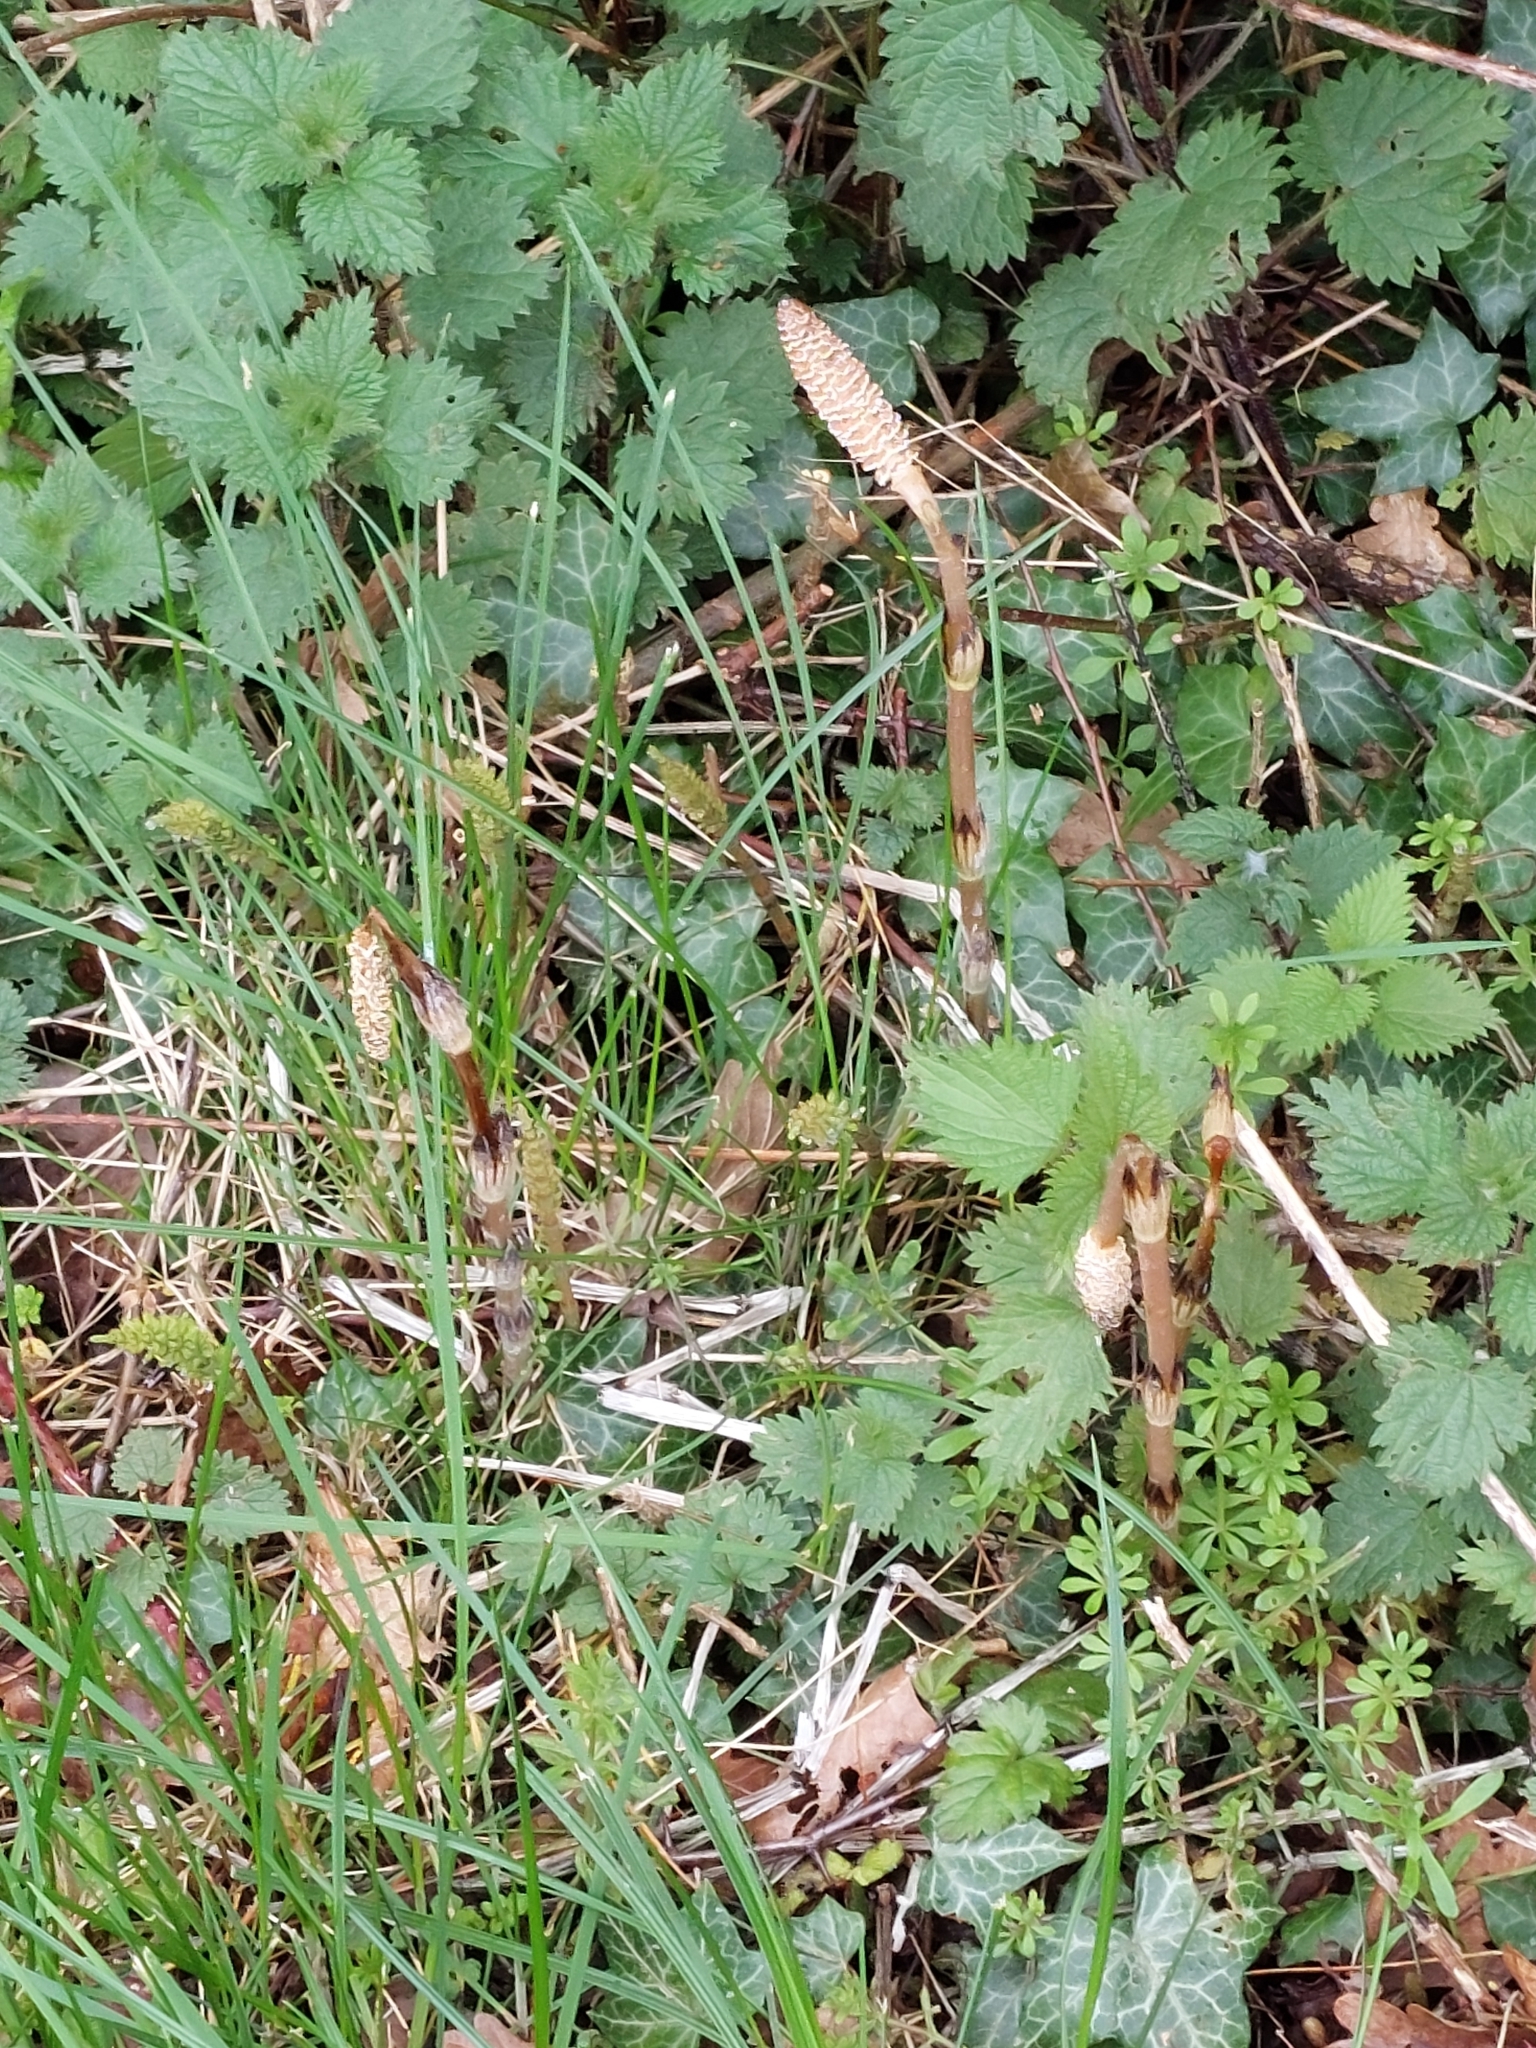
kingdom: Plantae
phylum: Tracheophyta
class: Polypodiopsida
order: Equisetales
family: Equisetaceae
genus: Equisetum
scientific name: Equisetum arvense
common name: Field horsetail
